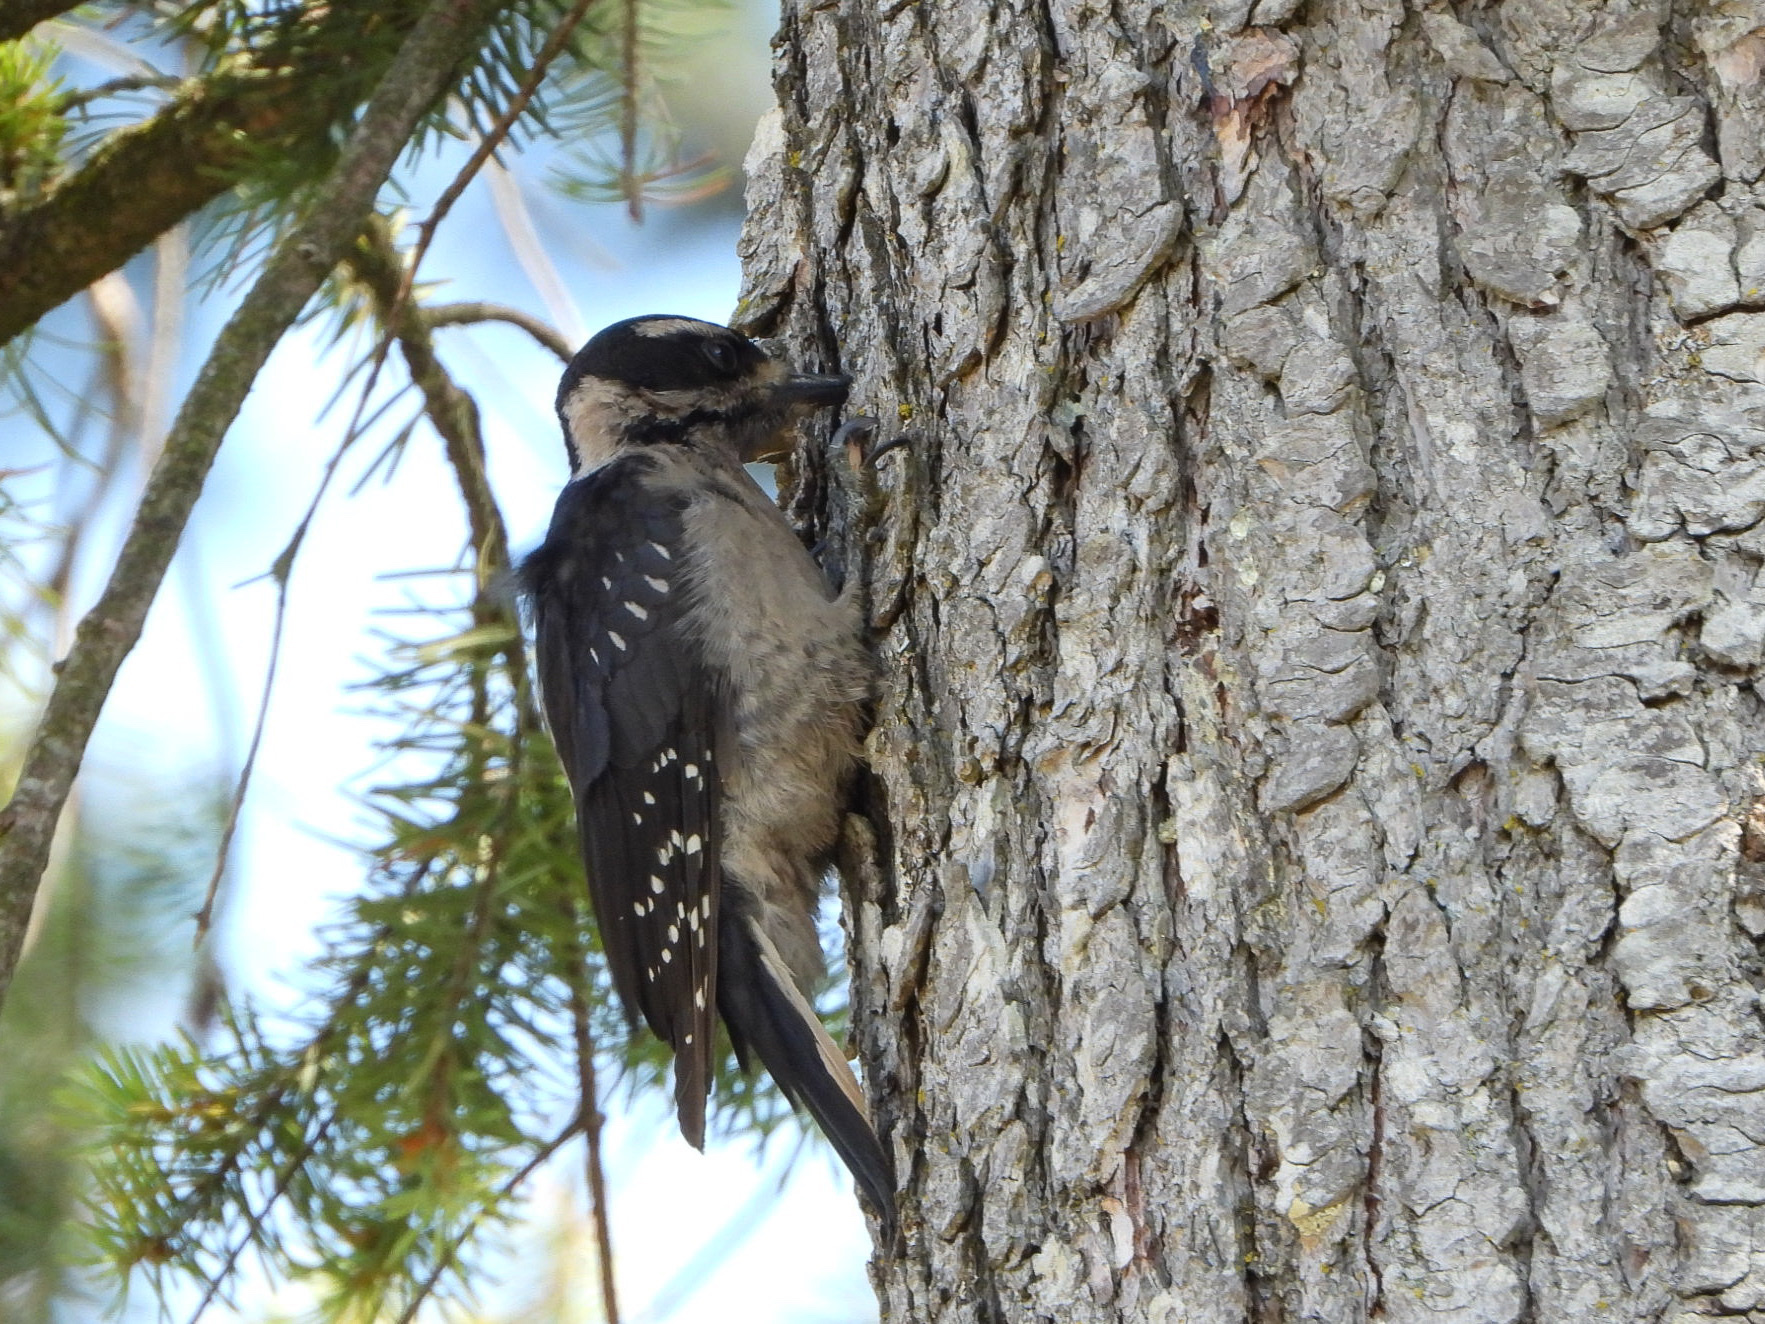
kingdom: Animalia
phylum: Chordata
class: Aves
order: Piciformes
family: Picidae
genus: Leuconotopicus
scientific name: Leuconotopicus villosus
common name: Hairy woodpecker
